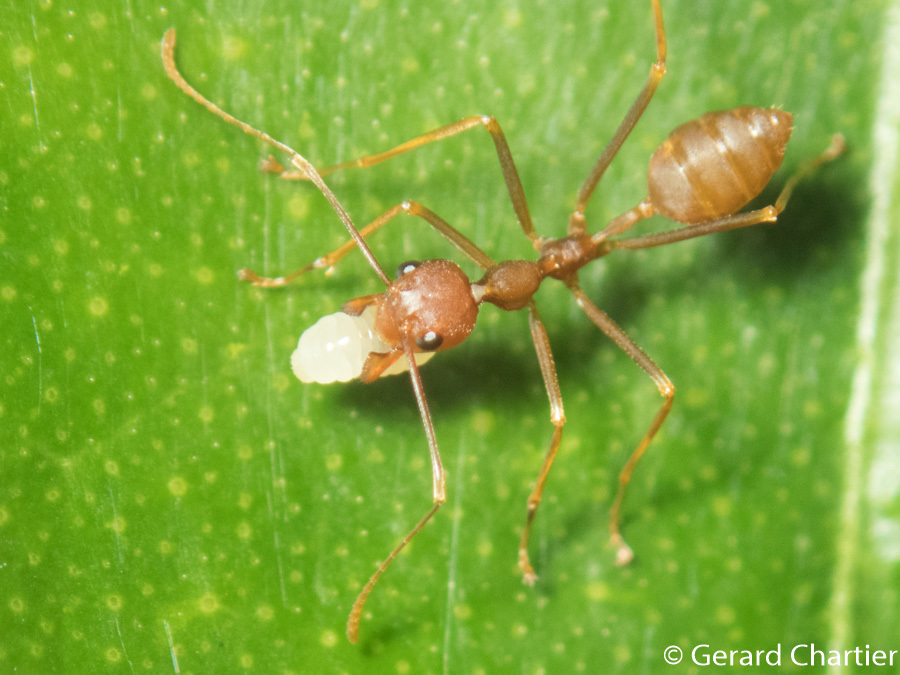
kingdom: Animalia
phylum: Arthropoda
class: Insecta
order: Hymenoptera
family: Formicidae
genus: Oecophylla
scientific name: Oecophylla smaragdina
